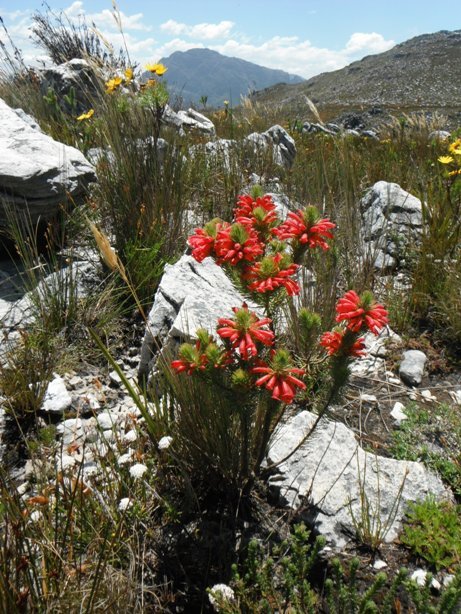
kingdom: Plantae
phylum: Tracheophyta
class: Magnoliopsida
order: Ericales
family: Ericaceae
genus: Erica
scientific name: Erica viscaria
